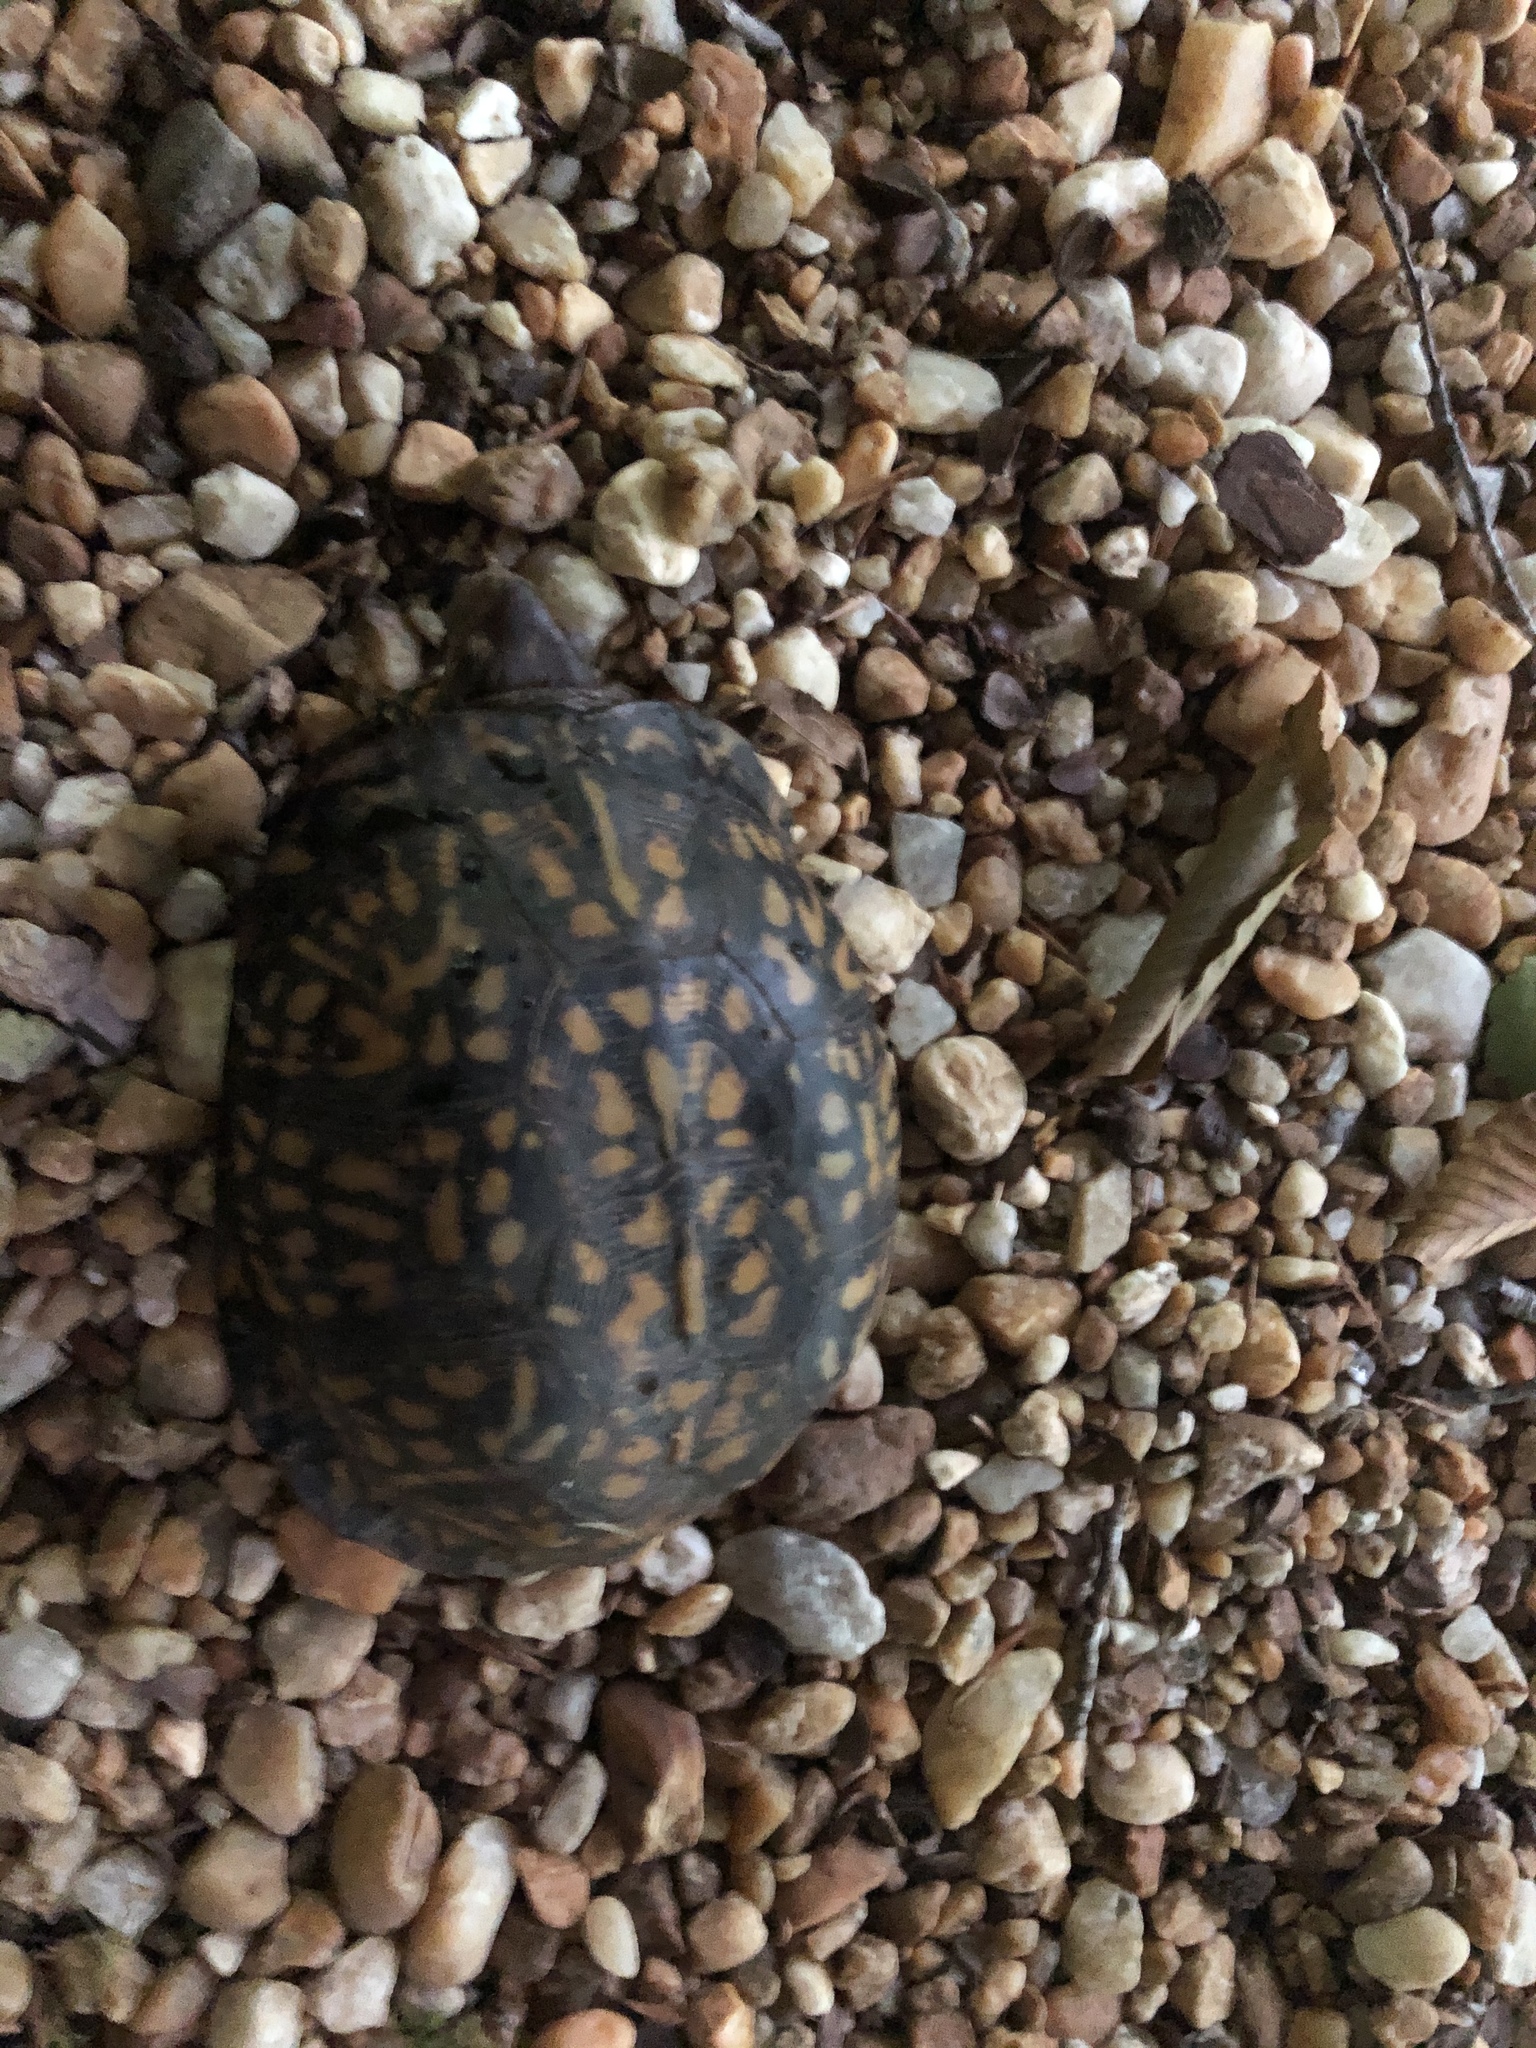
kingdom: Animalia
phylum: Chordata
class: Testudines
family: Emydidae
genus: Terrapene
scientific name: Terrapene carolina
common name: Common box turtle
